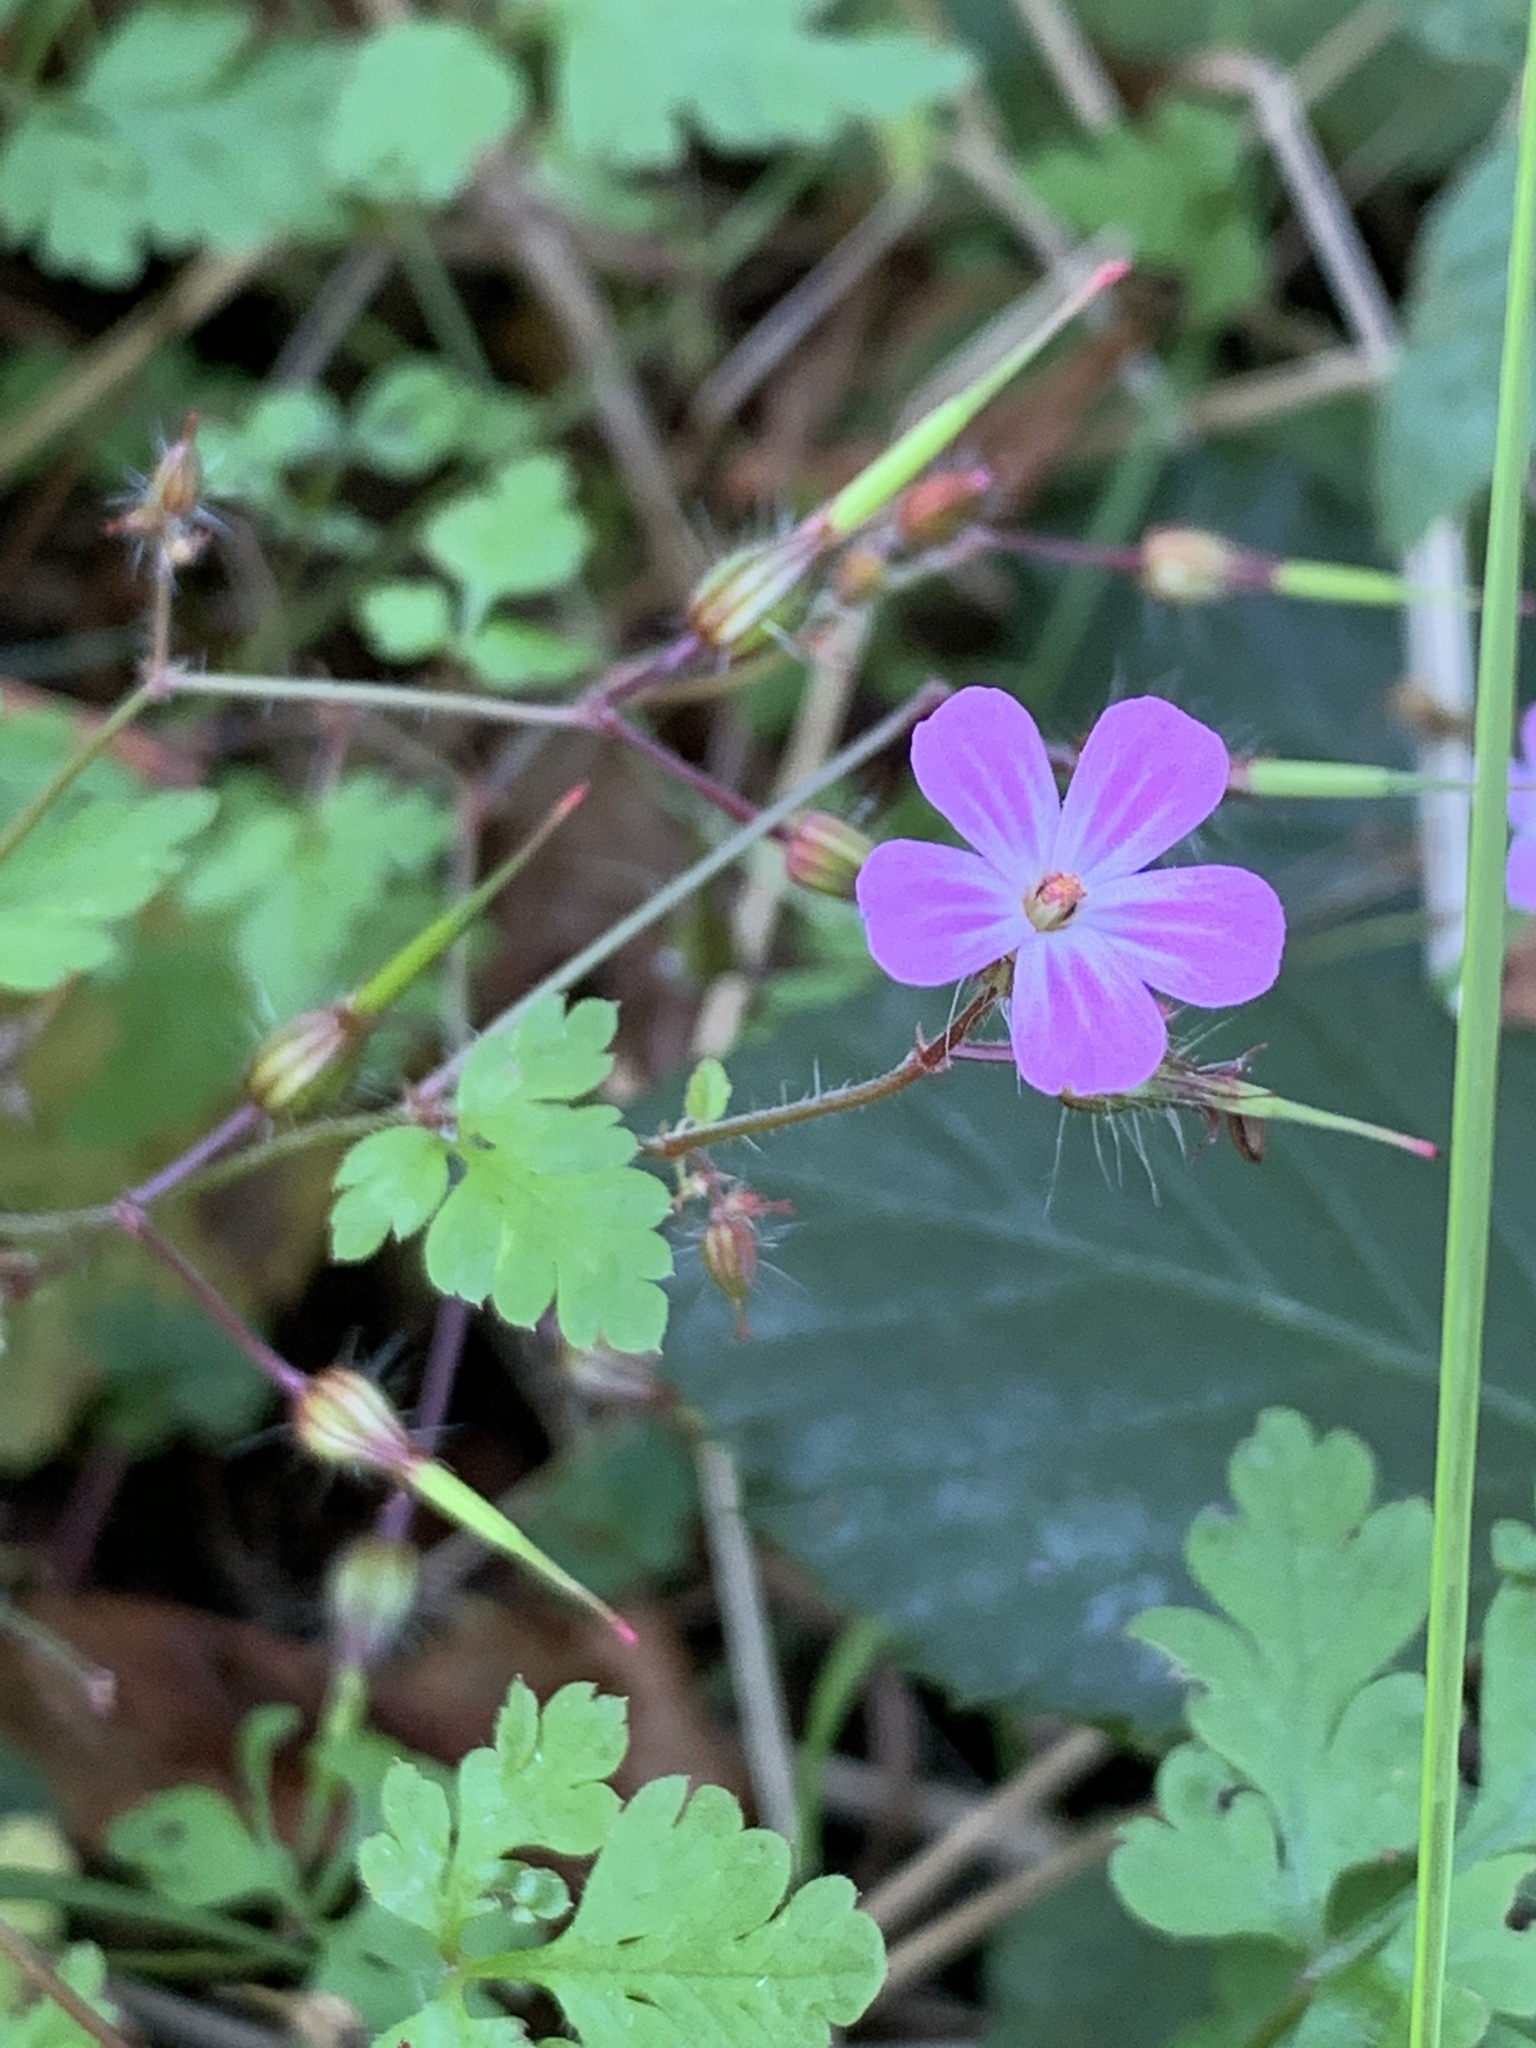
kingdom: Plantae
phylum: Tracheophyta
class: Magnoliopsida
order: Geraniales
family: Geraniaceae
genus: Geranium
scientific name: Geranium robertianum
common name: Herb-robert
